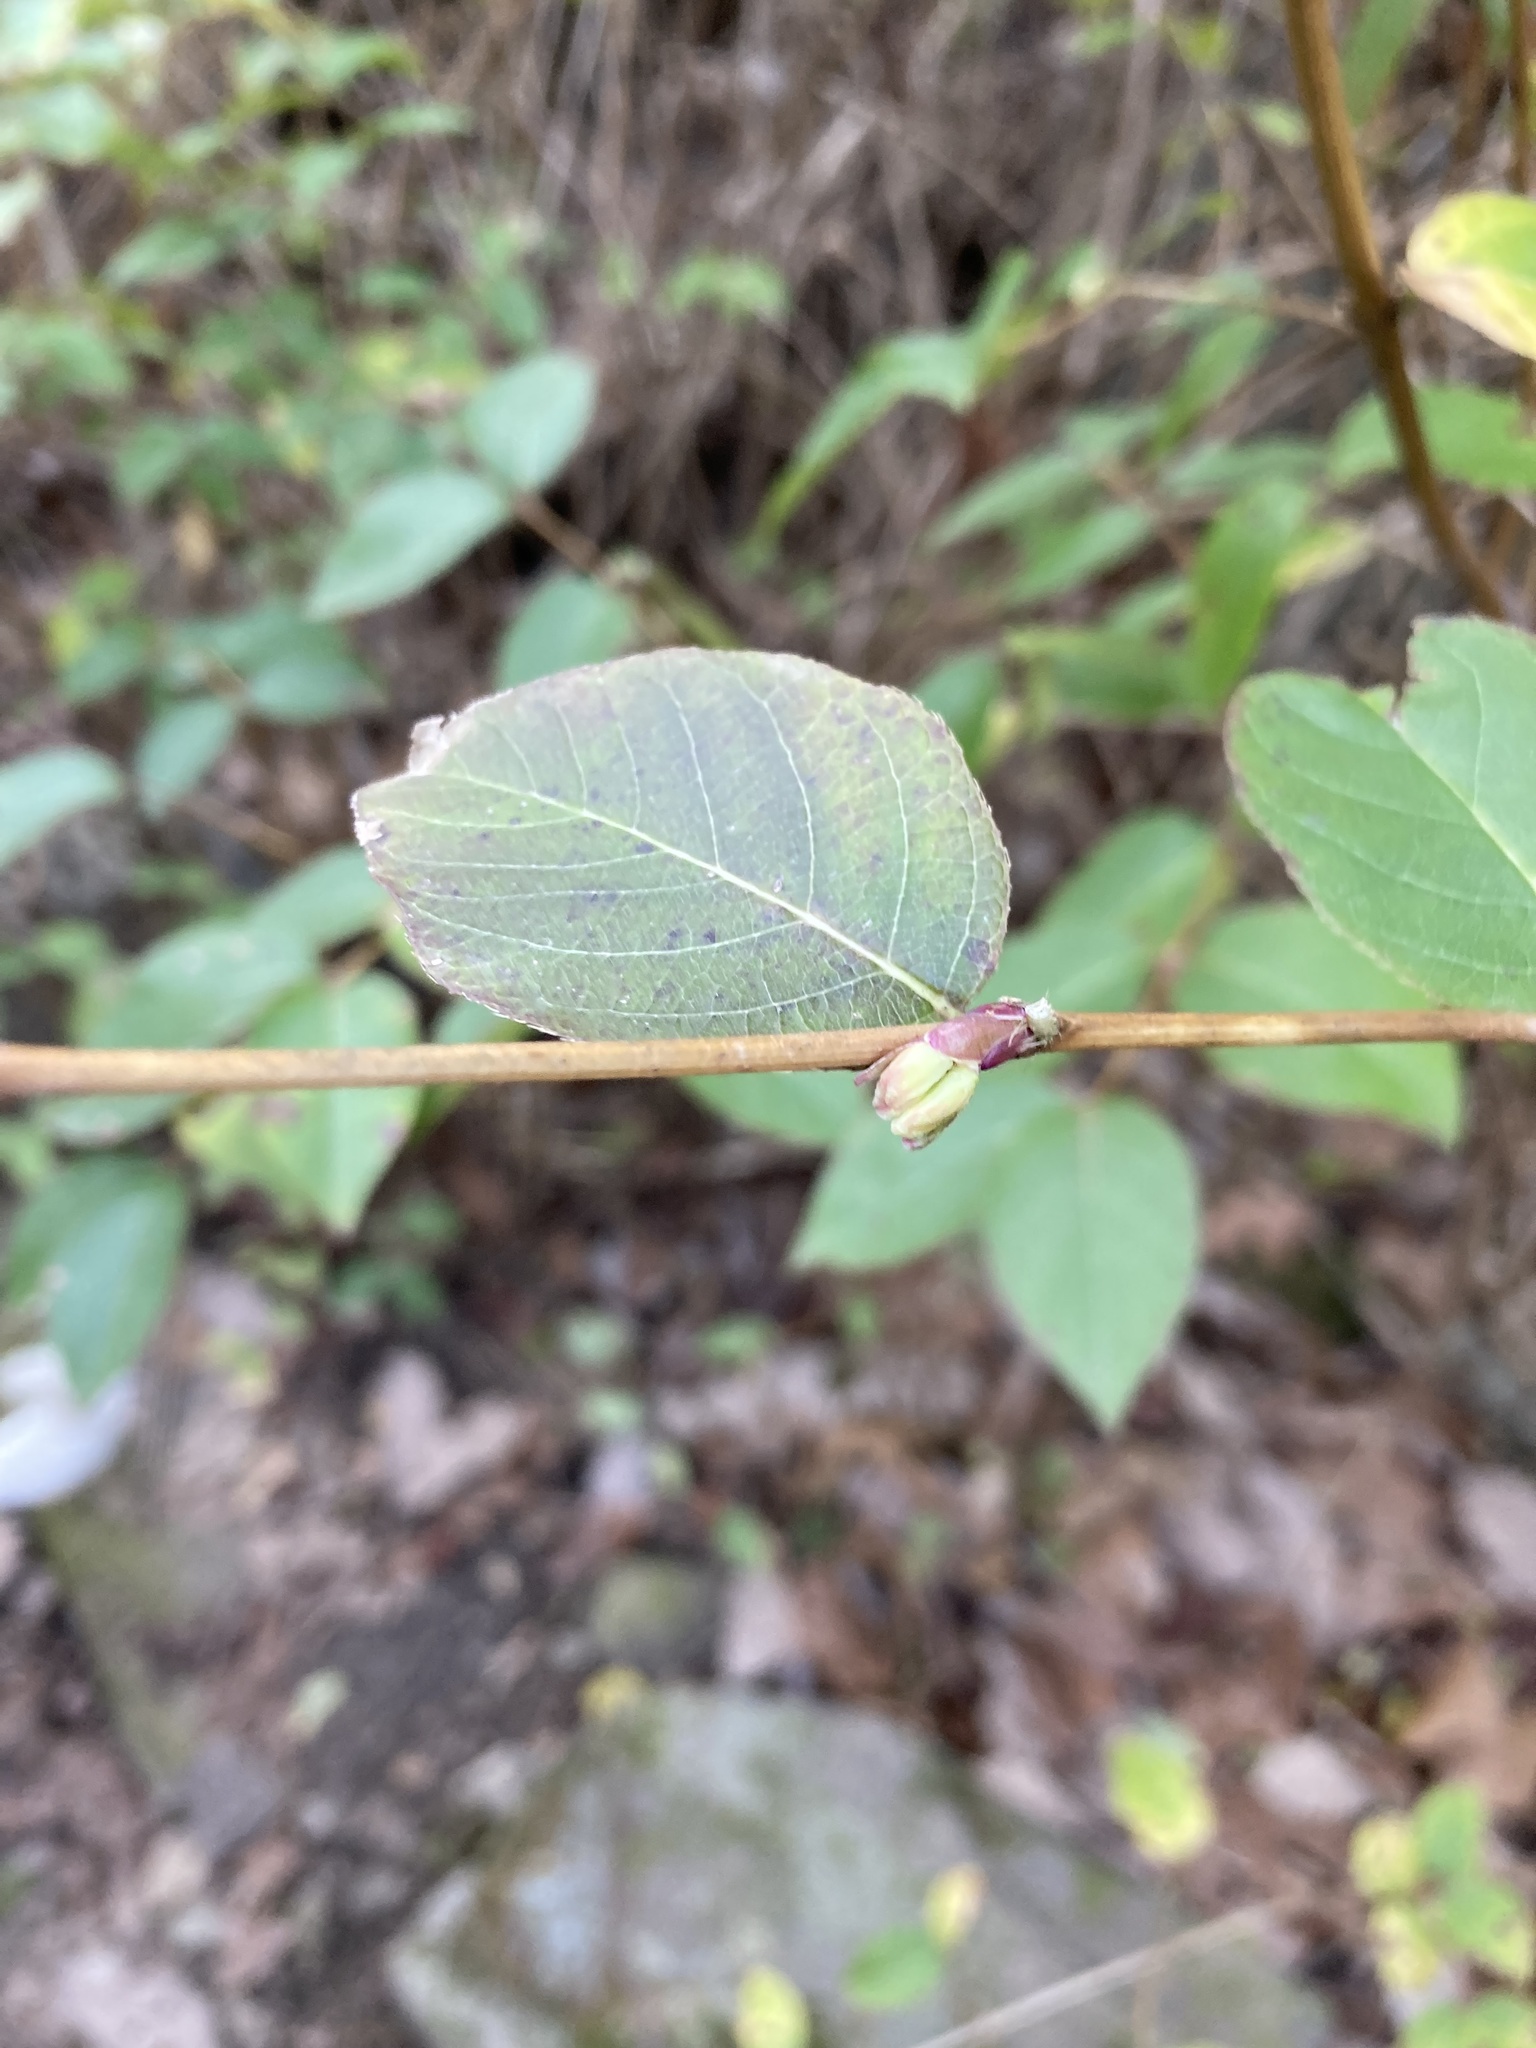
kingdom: Plantae
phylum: Tracheophyta
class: Magnoliopsida
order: Dipsacales
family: Caprifoliaceae
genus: Lonicera
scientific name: Lonicera fragrantissima
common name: Fragrant honeysuckle
